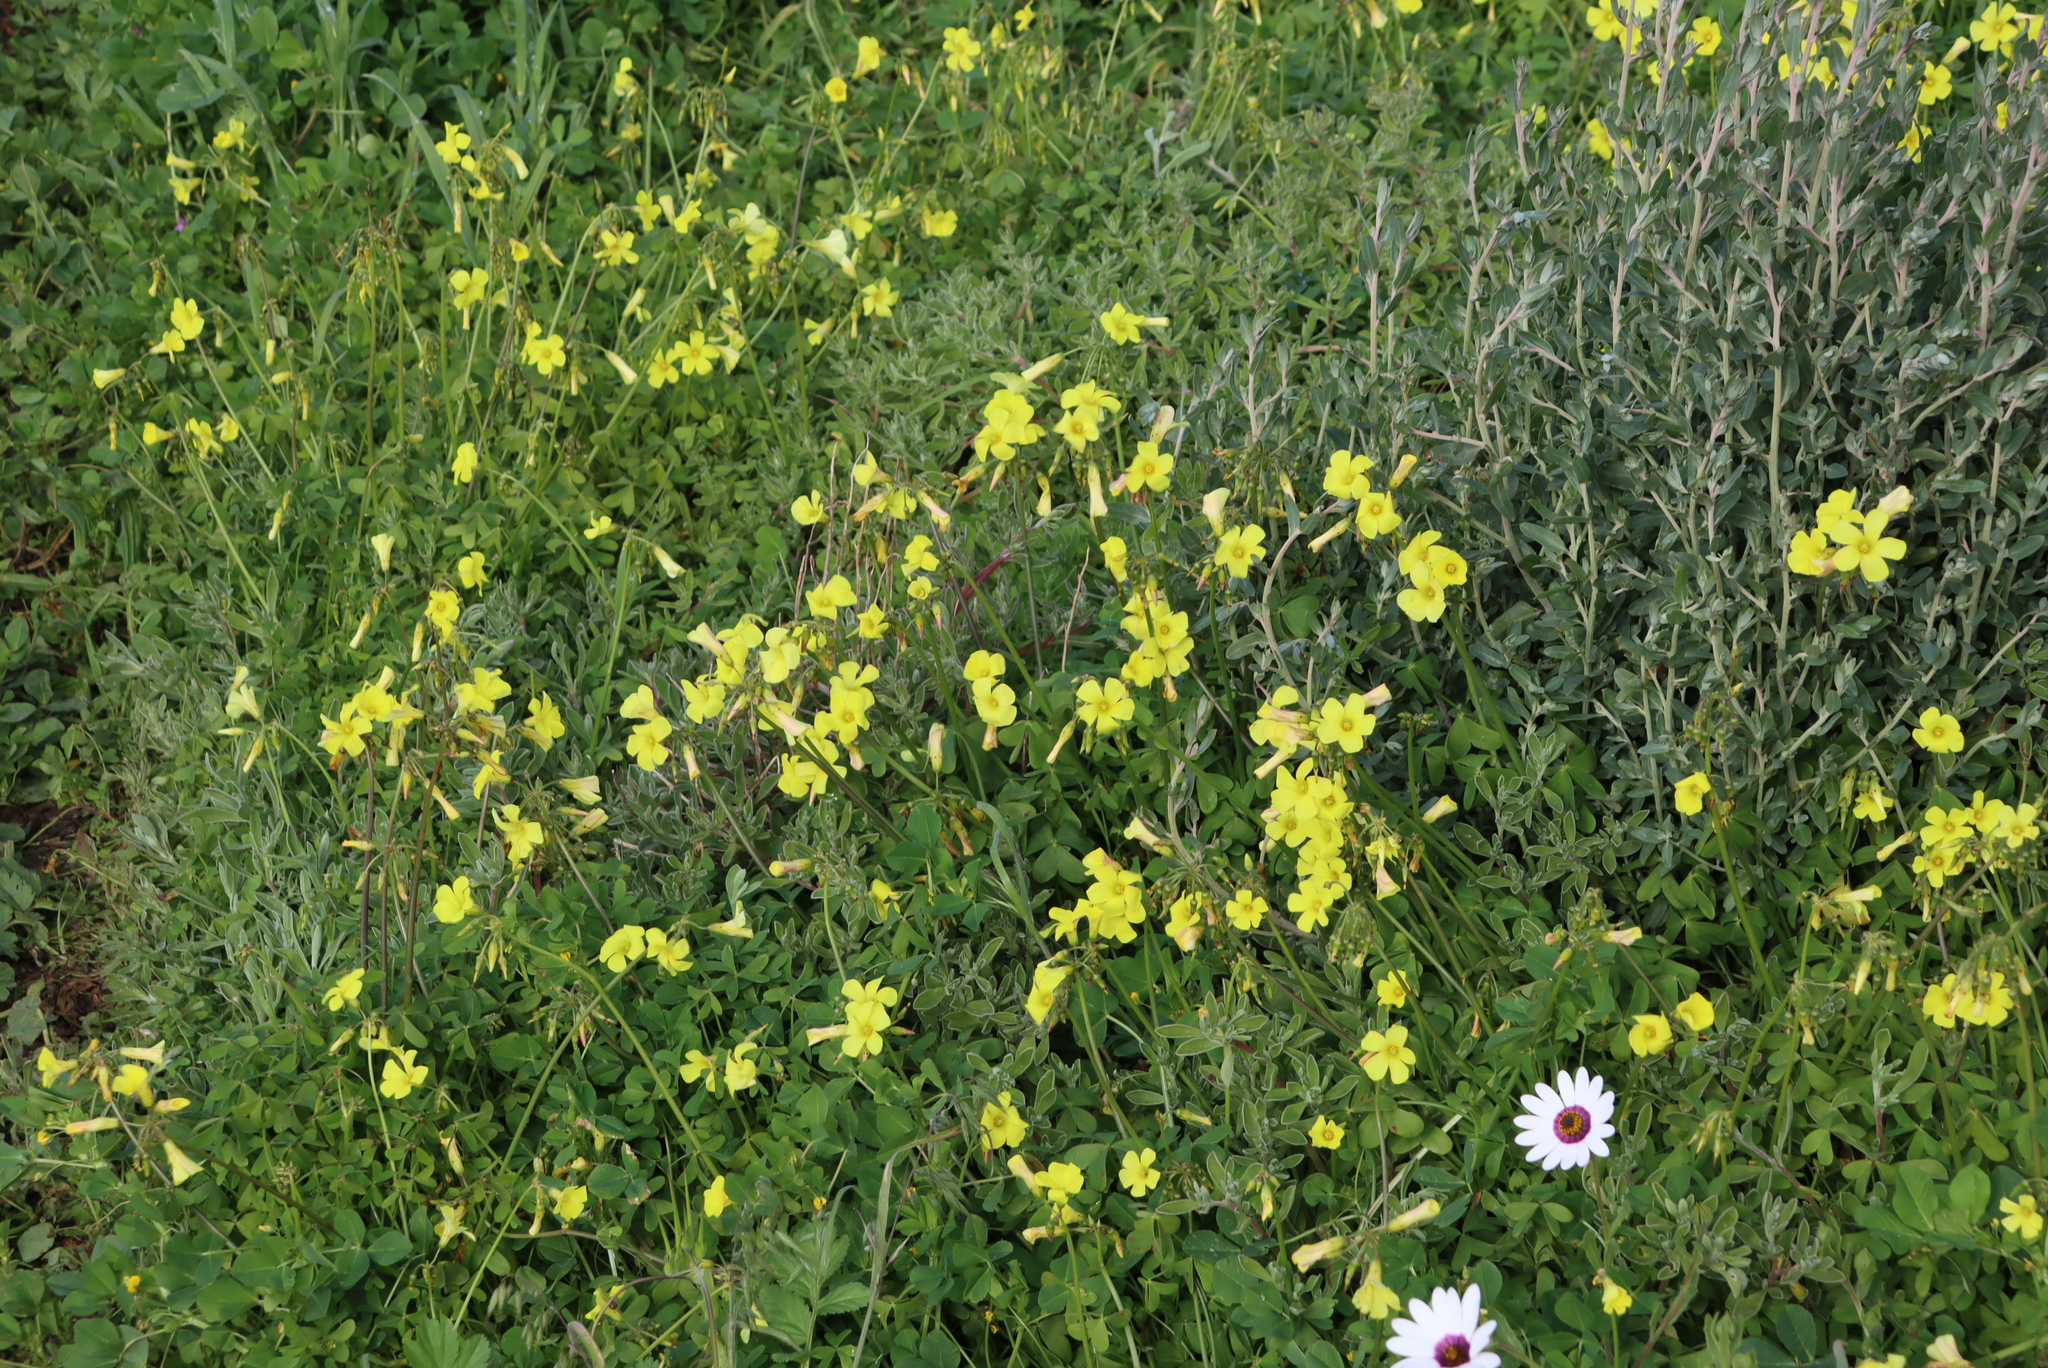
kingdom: Plantae
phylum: Tracheophyta
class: Magnoliopsida
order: Oxalidales
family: Oxalidaceae
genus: Oxalis
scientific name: Oxalis pes-caprae
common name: Bermuda-buttercup
